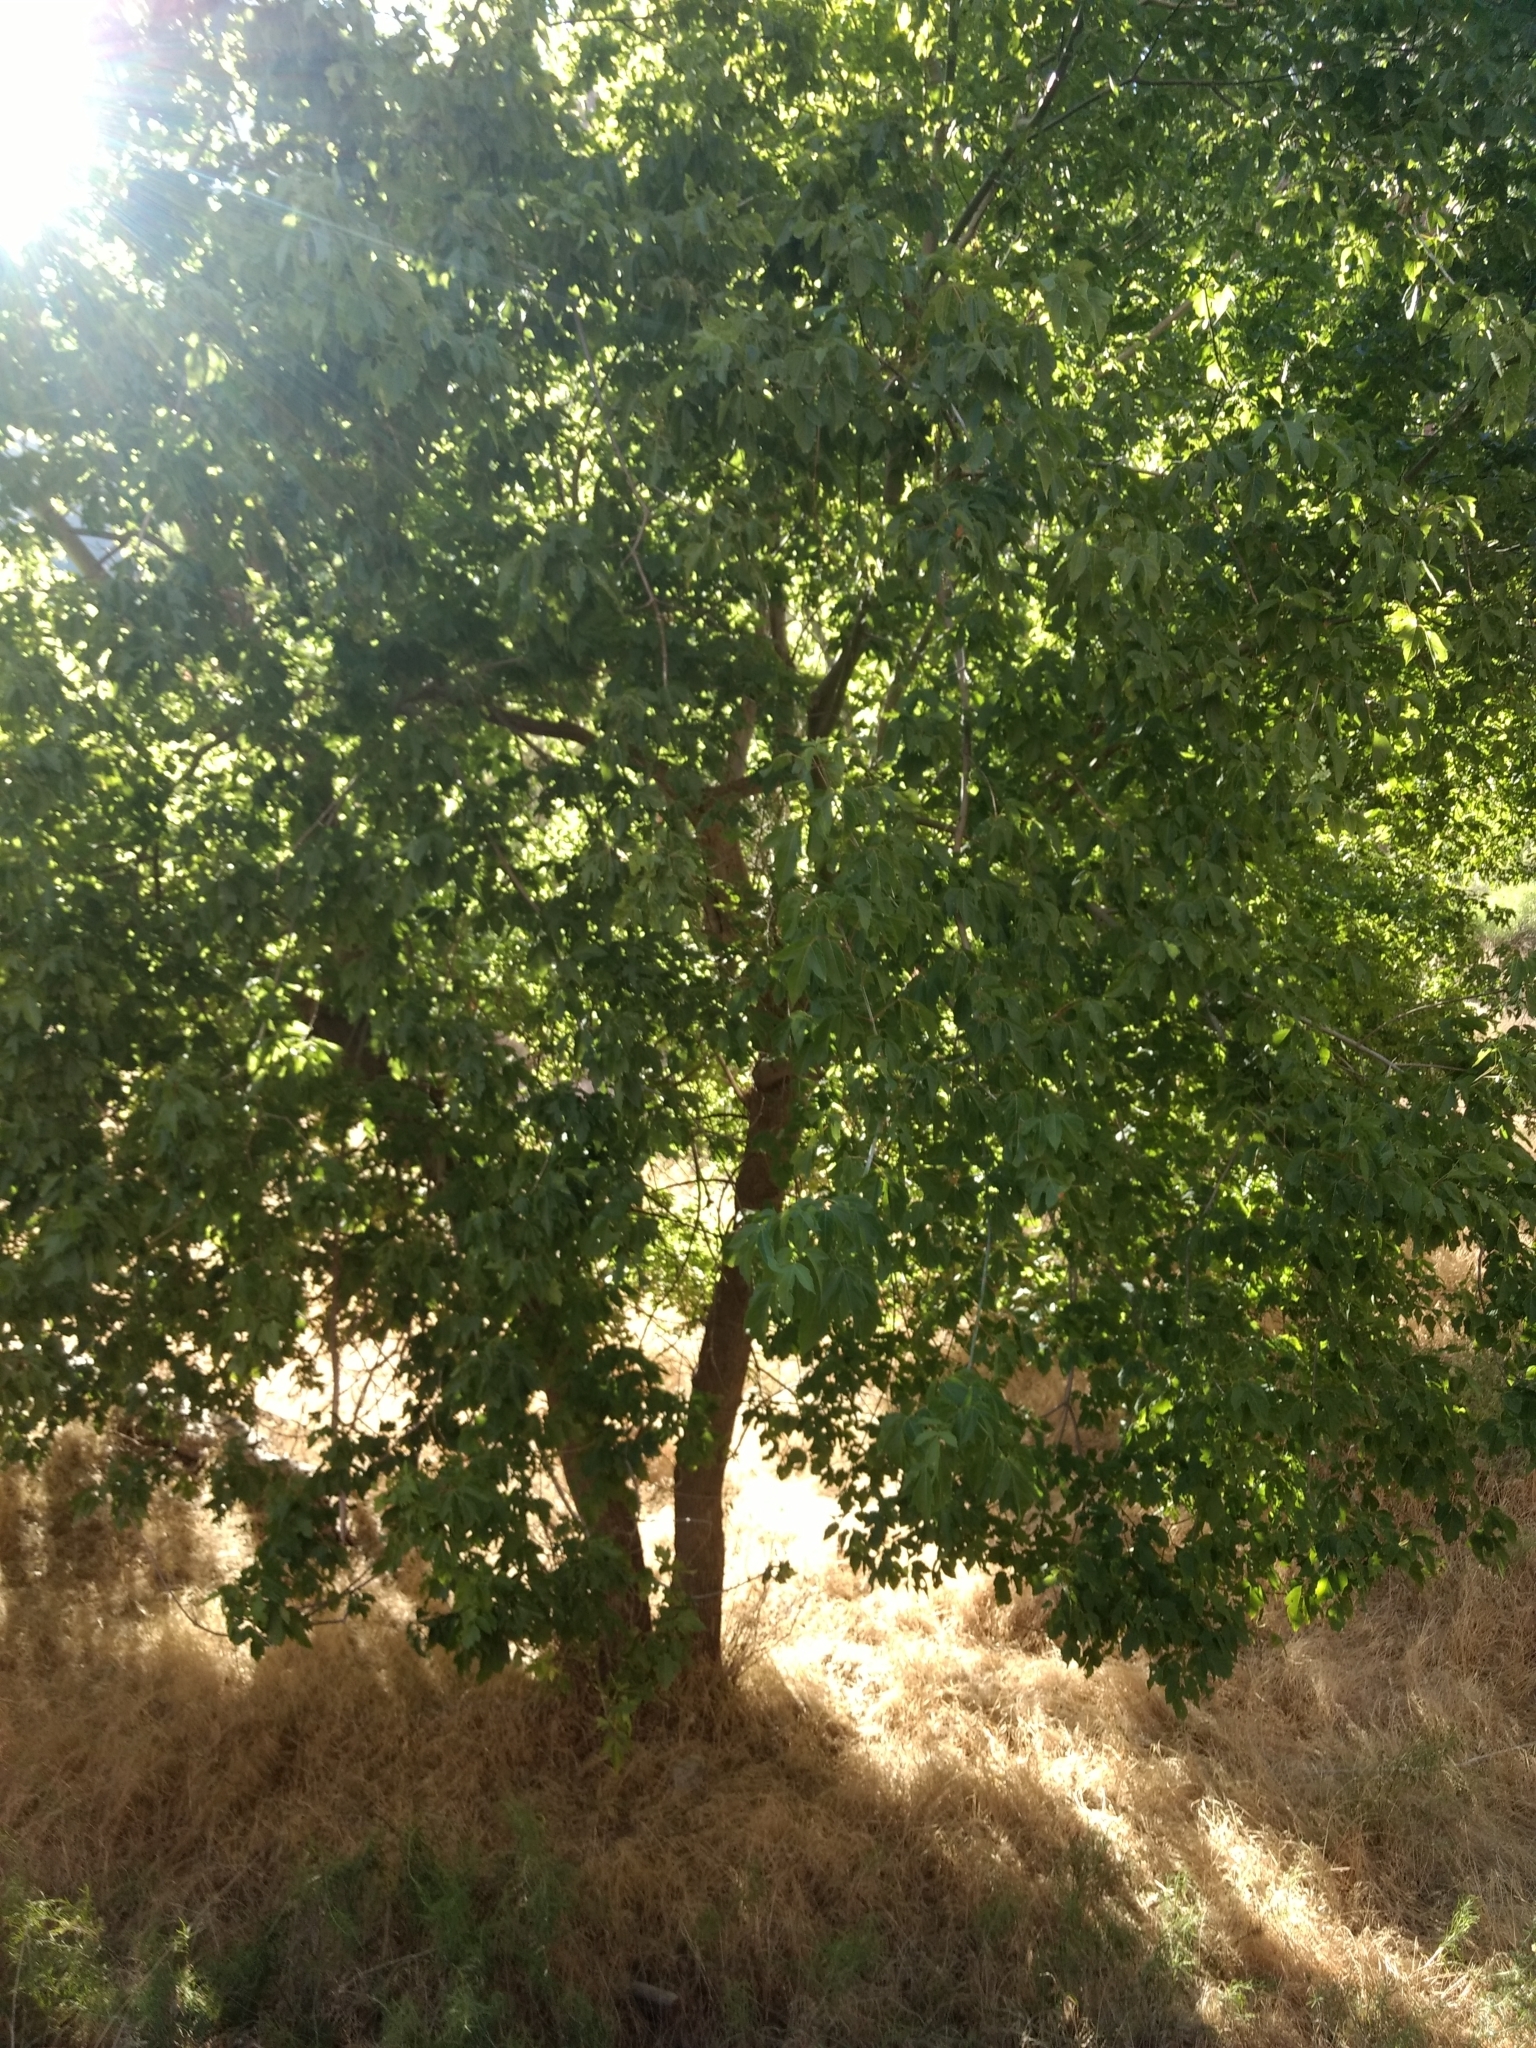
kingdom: Plantae
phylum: Tracheophyta
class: Magnoliopsida
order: Sapindales
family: Sapindaceae
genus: Acer
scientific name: Acer negundo
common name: Ashleaf maple
